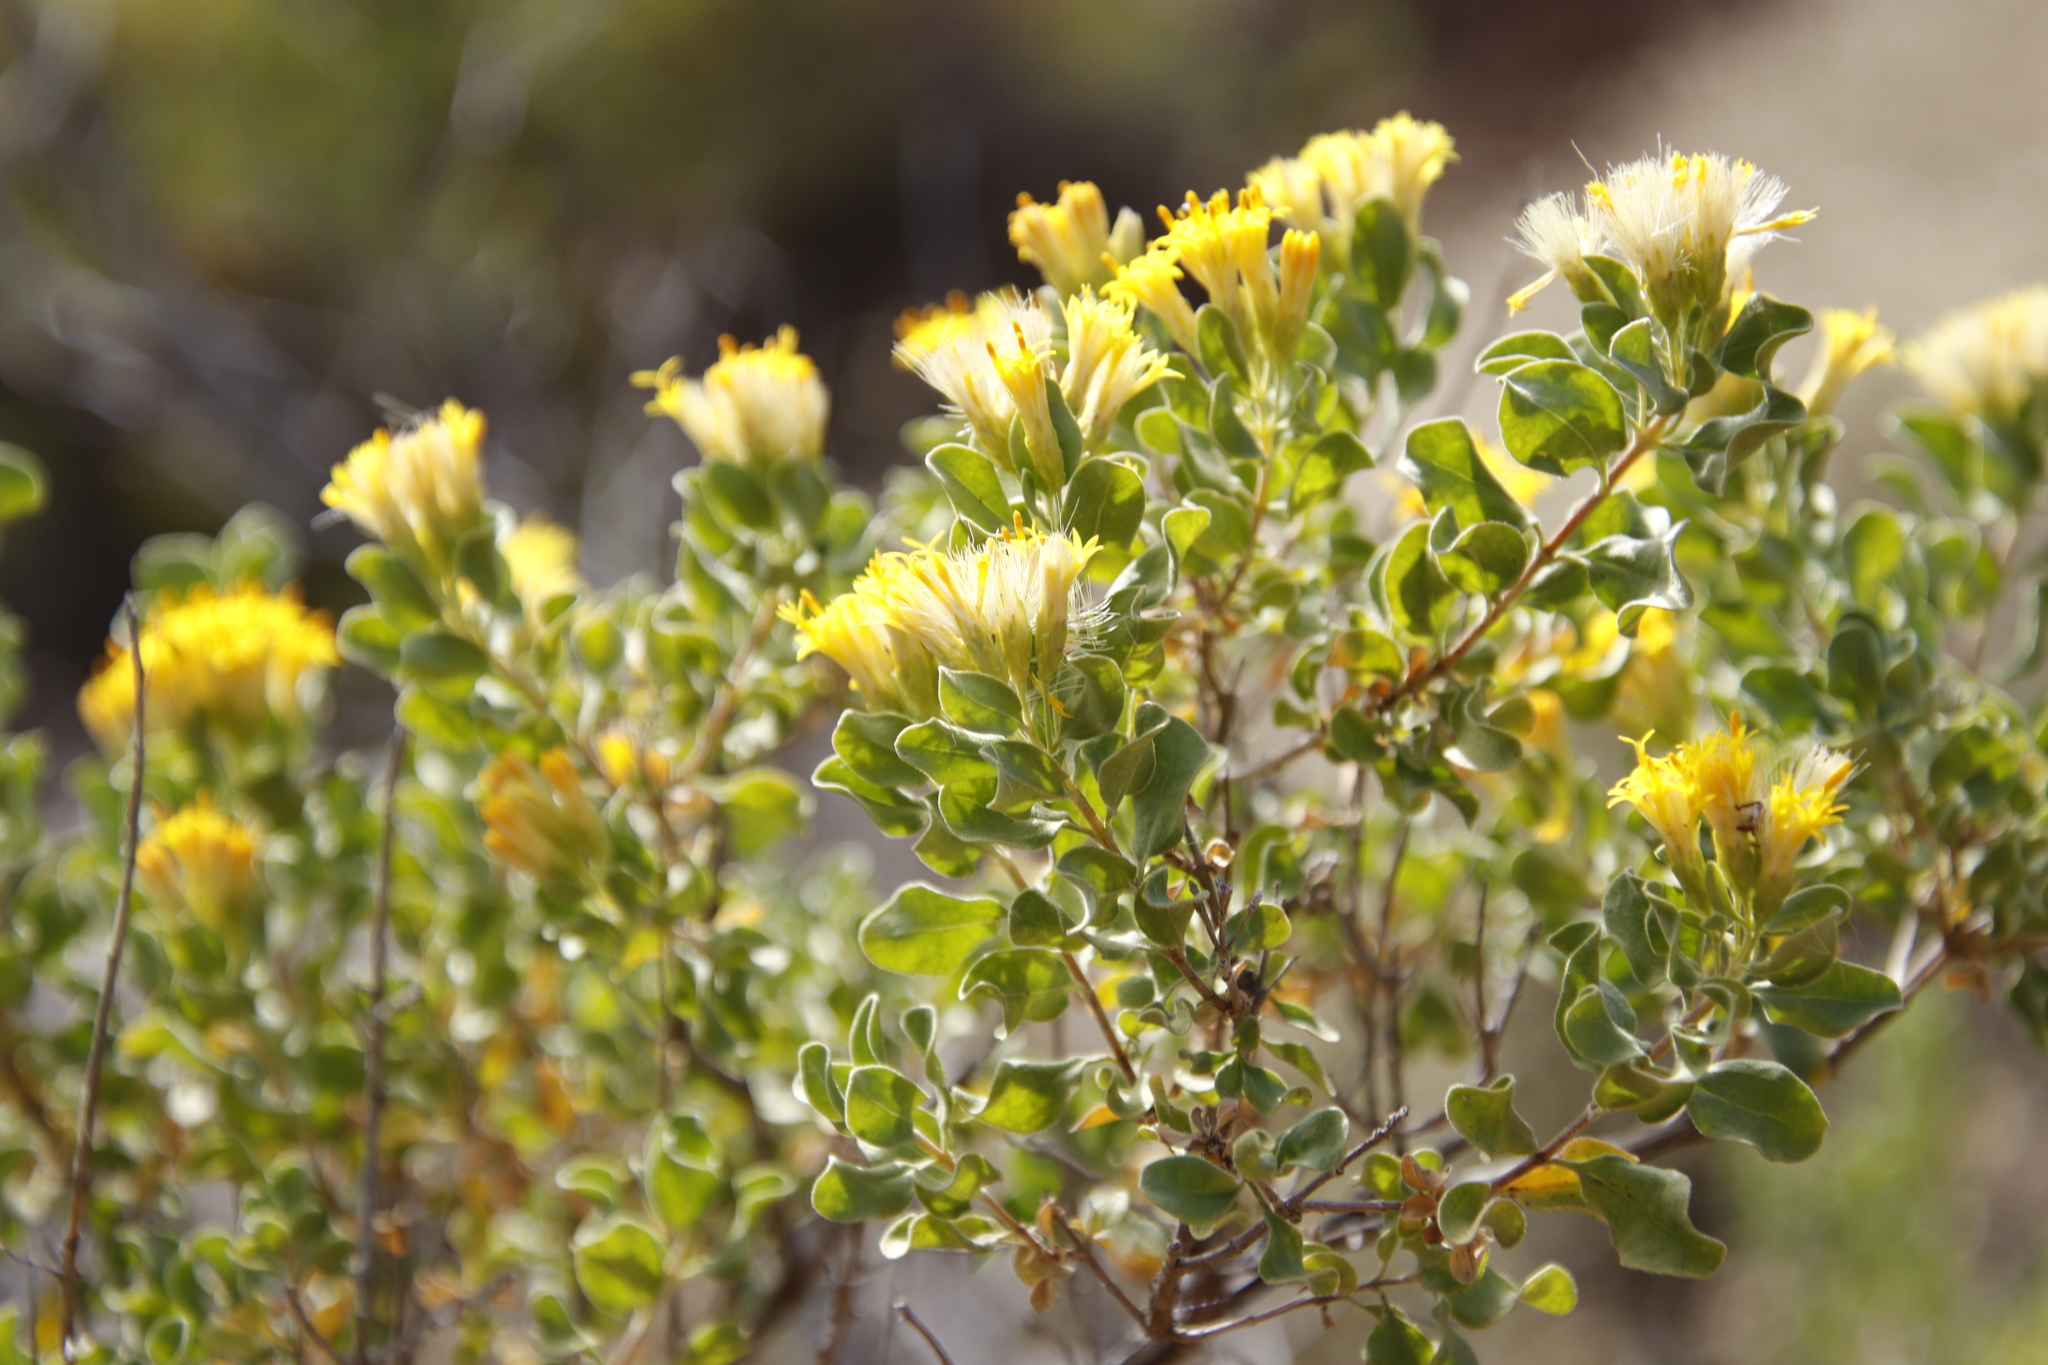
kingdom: Plantae
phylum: Tracheophyta
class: Magnoliopsida
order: Asterales
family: Asteraceae
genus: Pteronia
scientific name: Pteronia undulata
